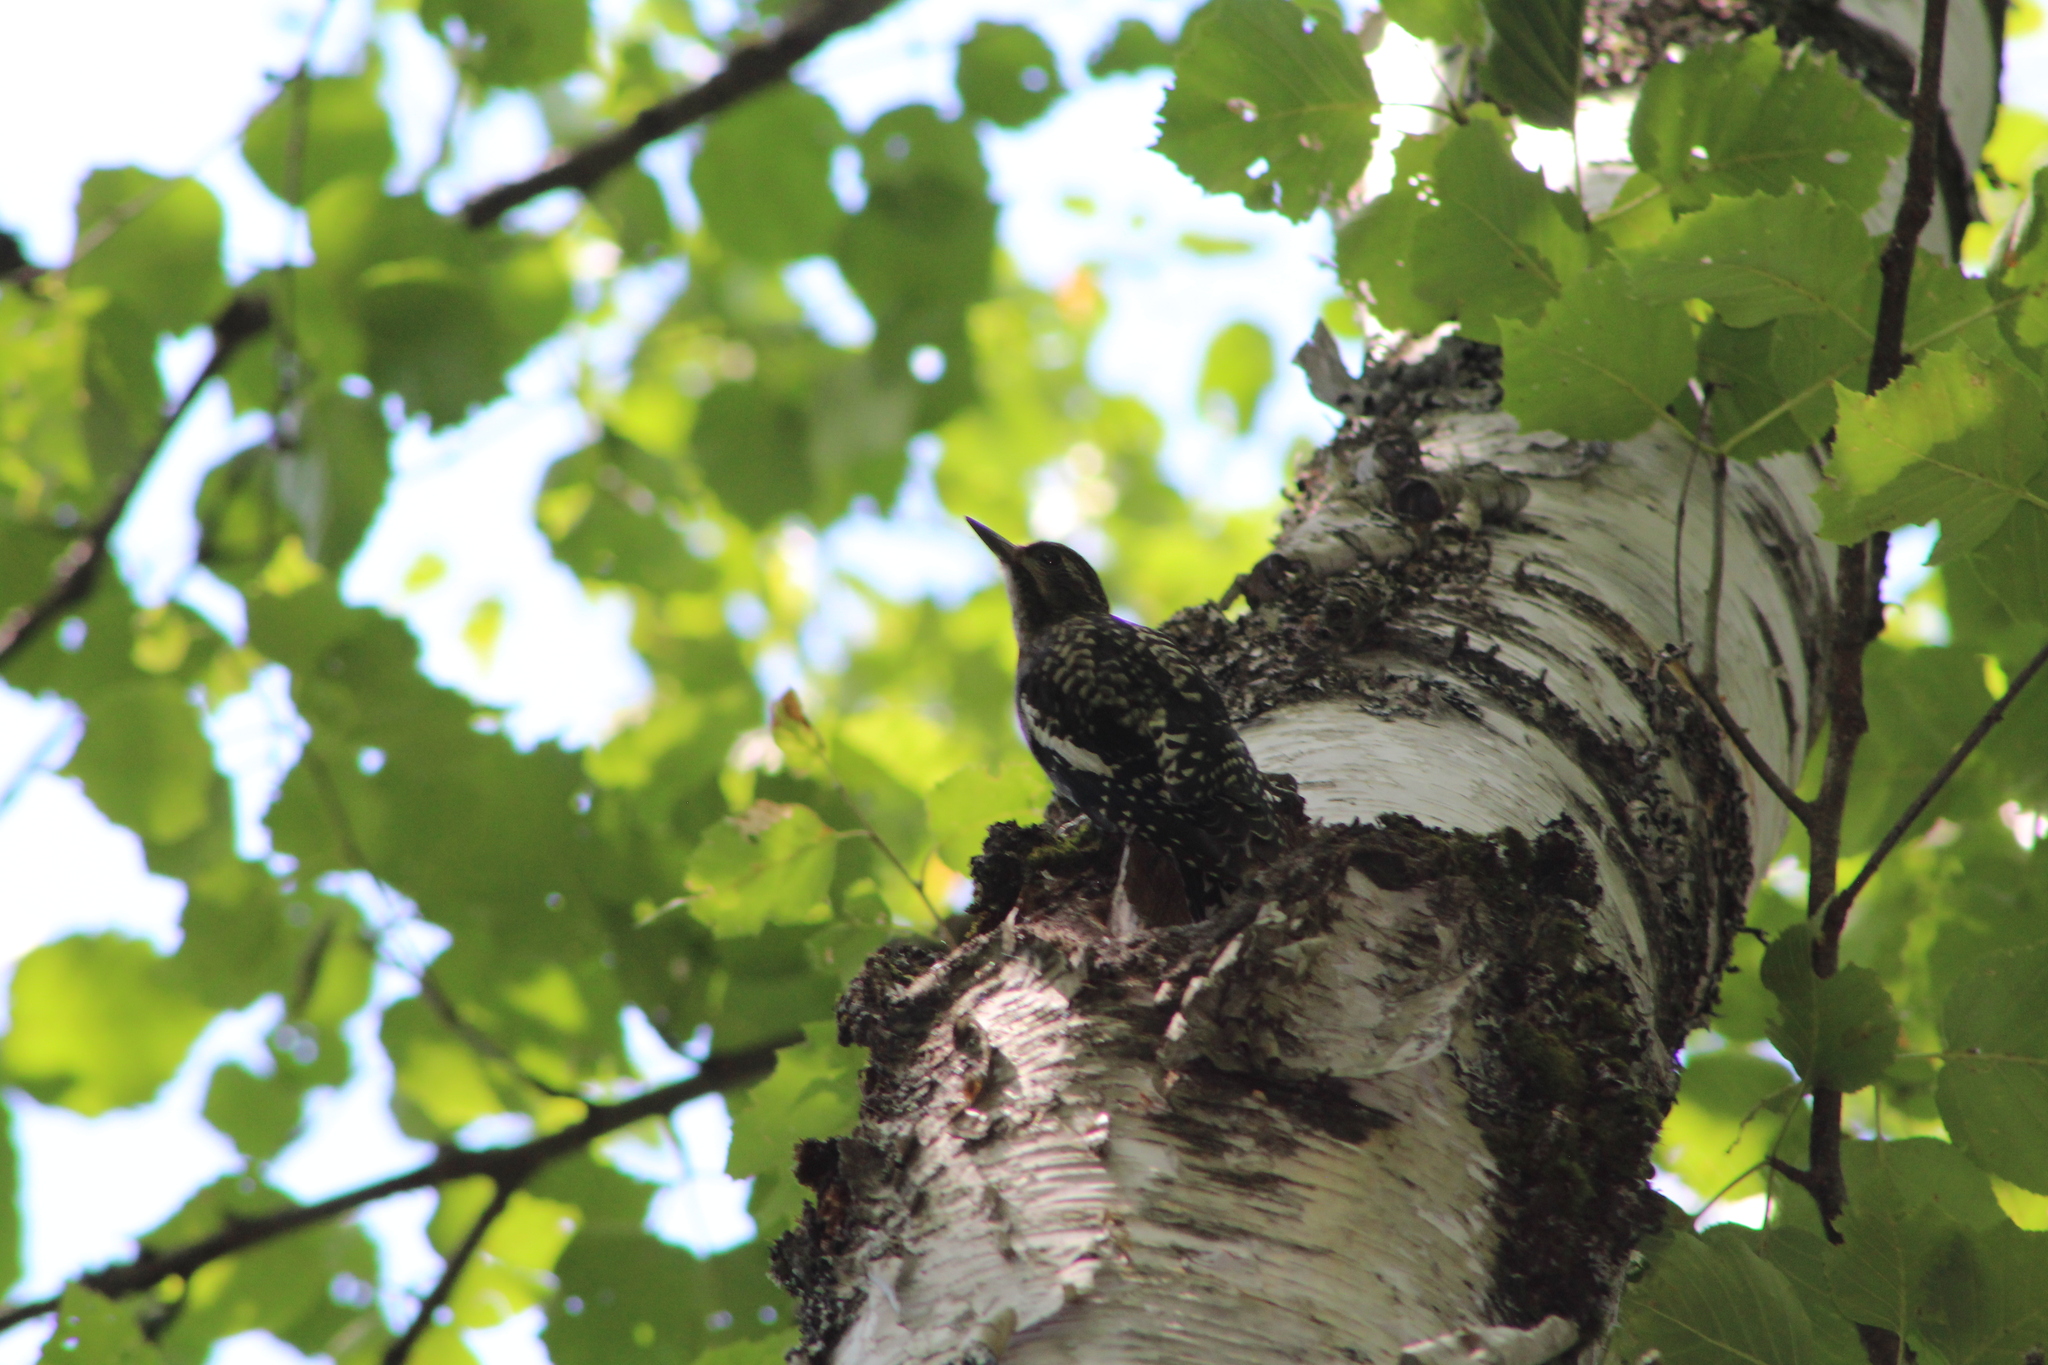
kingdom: Animalia
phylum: Chordata
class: Aves
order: Piciformes
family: Picidae
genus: Sphyrapicus
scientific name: Sphyrapicus varius
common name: Yellow-bellied sapsucker
